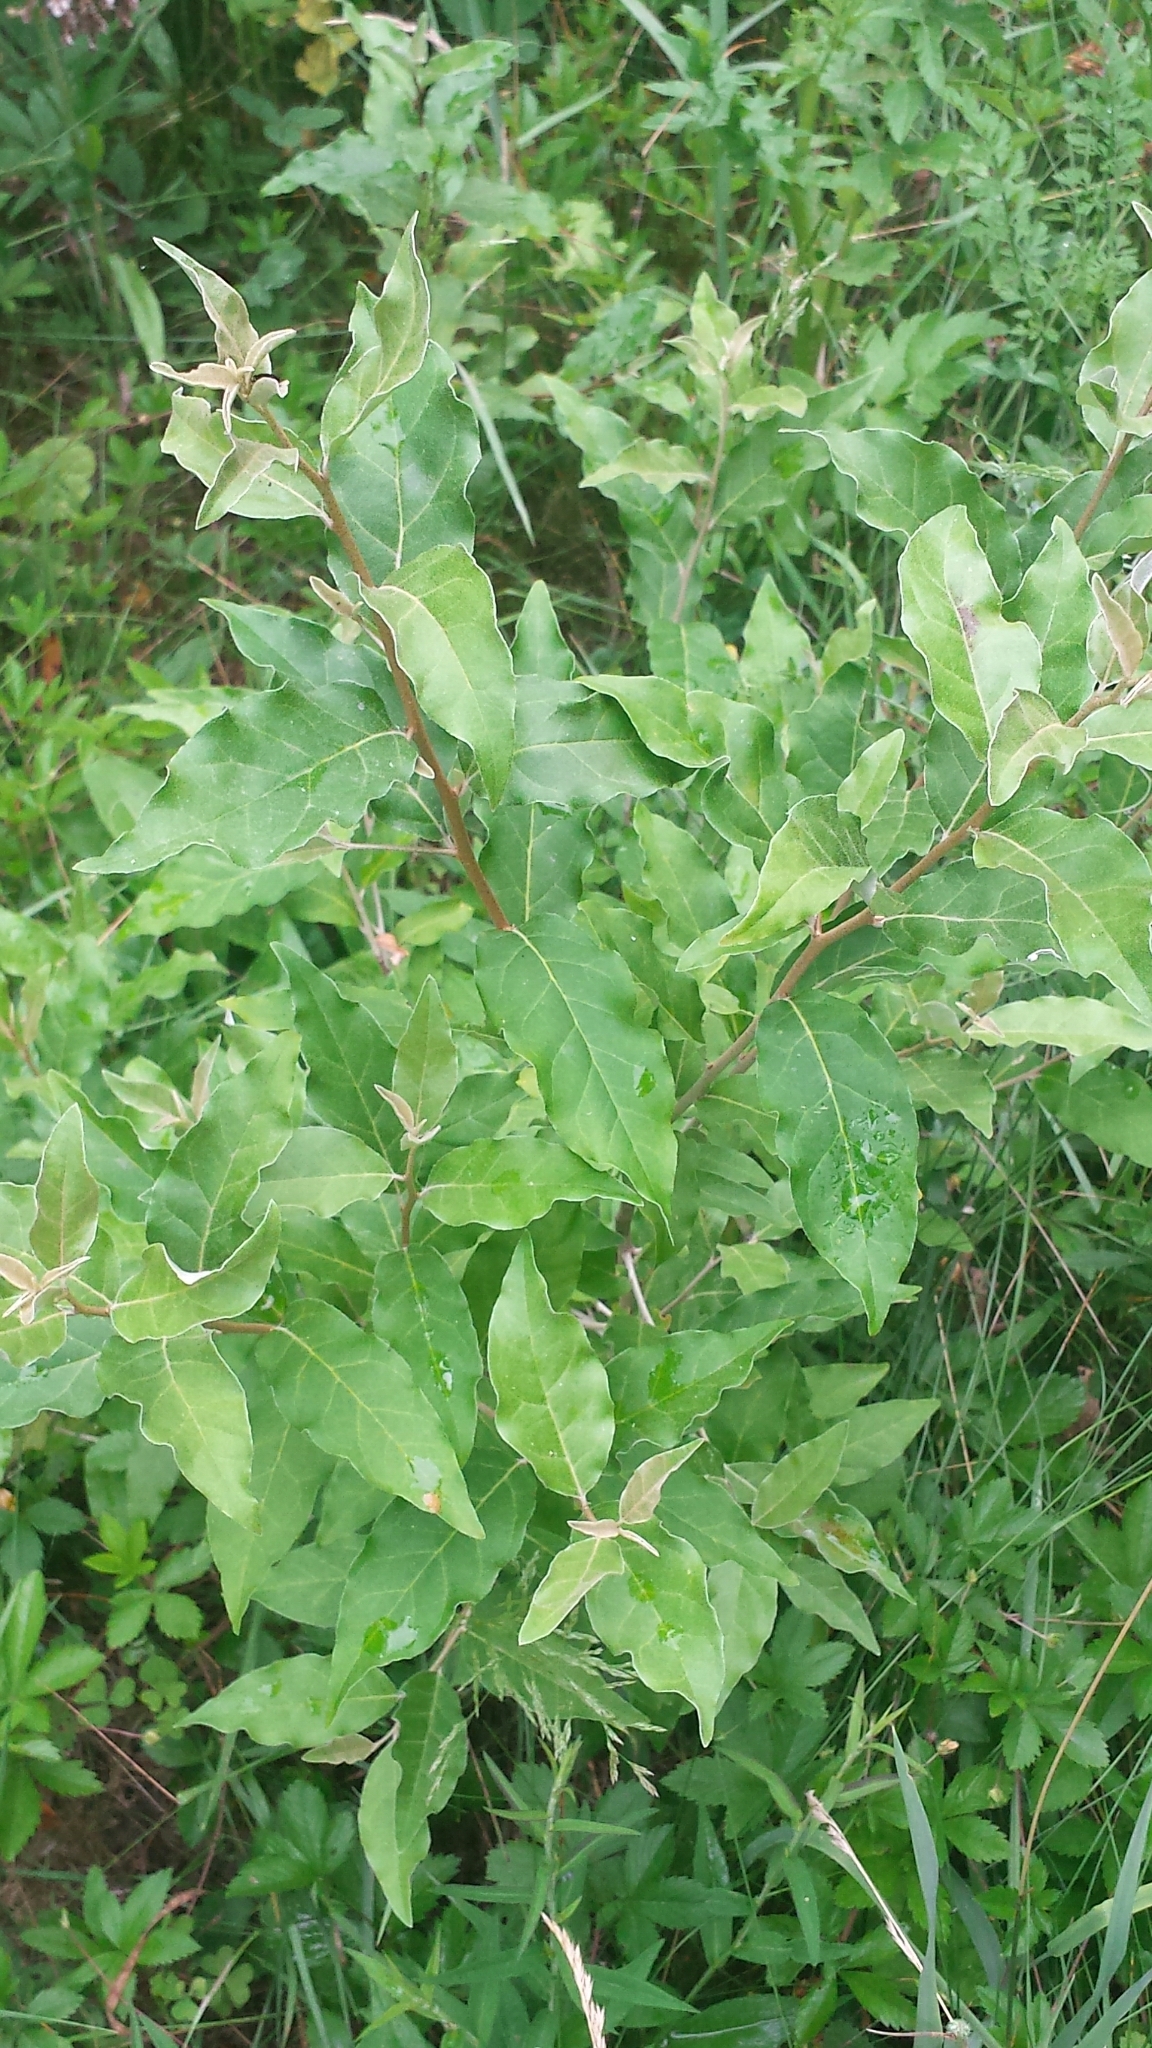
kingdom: Plantae
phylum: Tracheophyta
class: Magnoliopsida
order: Rosales
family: Elaeagnaceae
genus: Elaeagnus
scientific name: Elaeagnus umbellata
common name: Autumn olive
